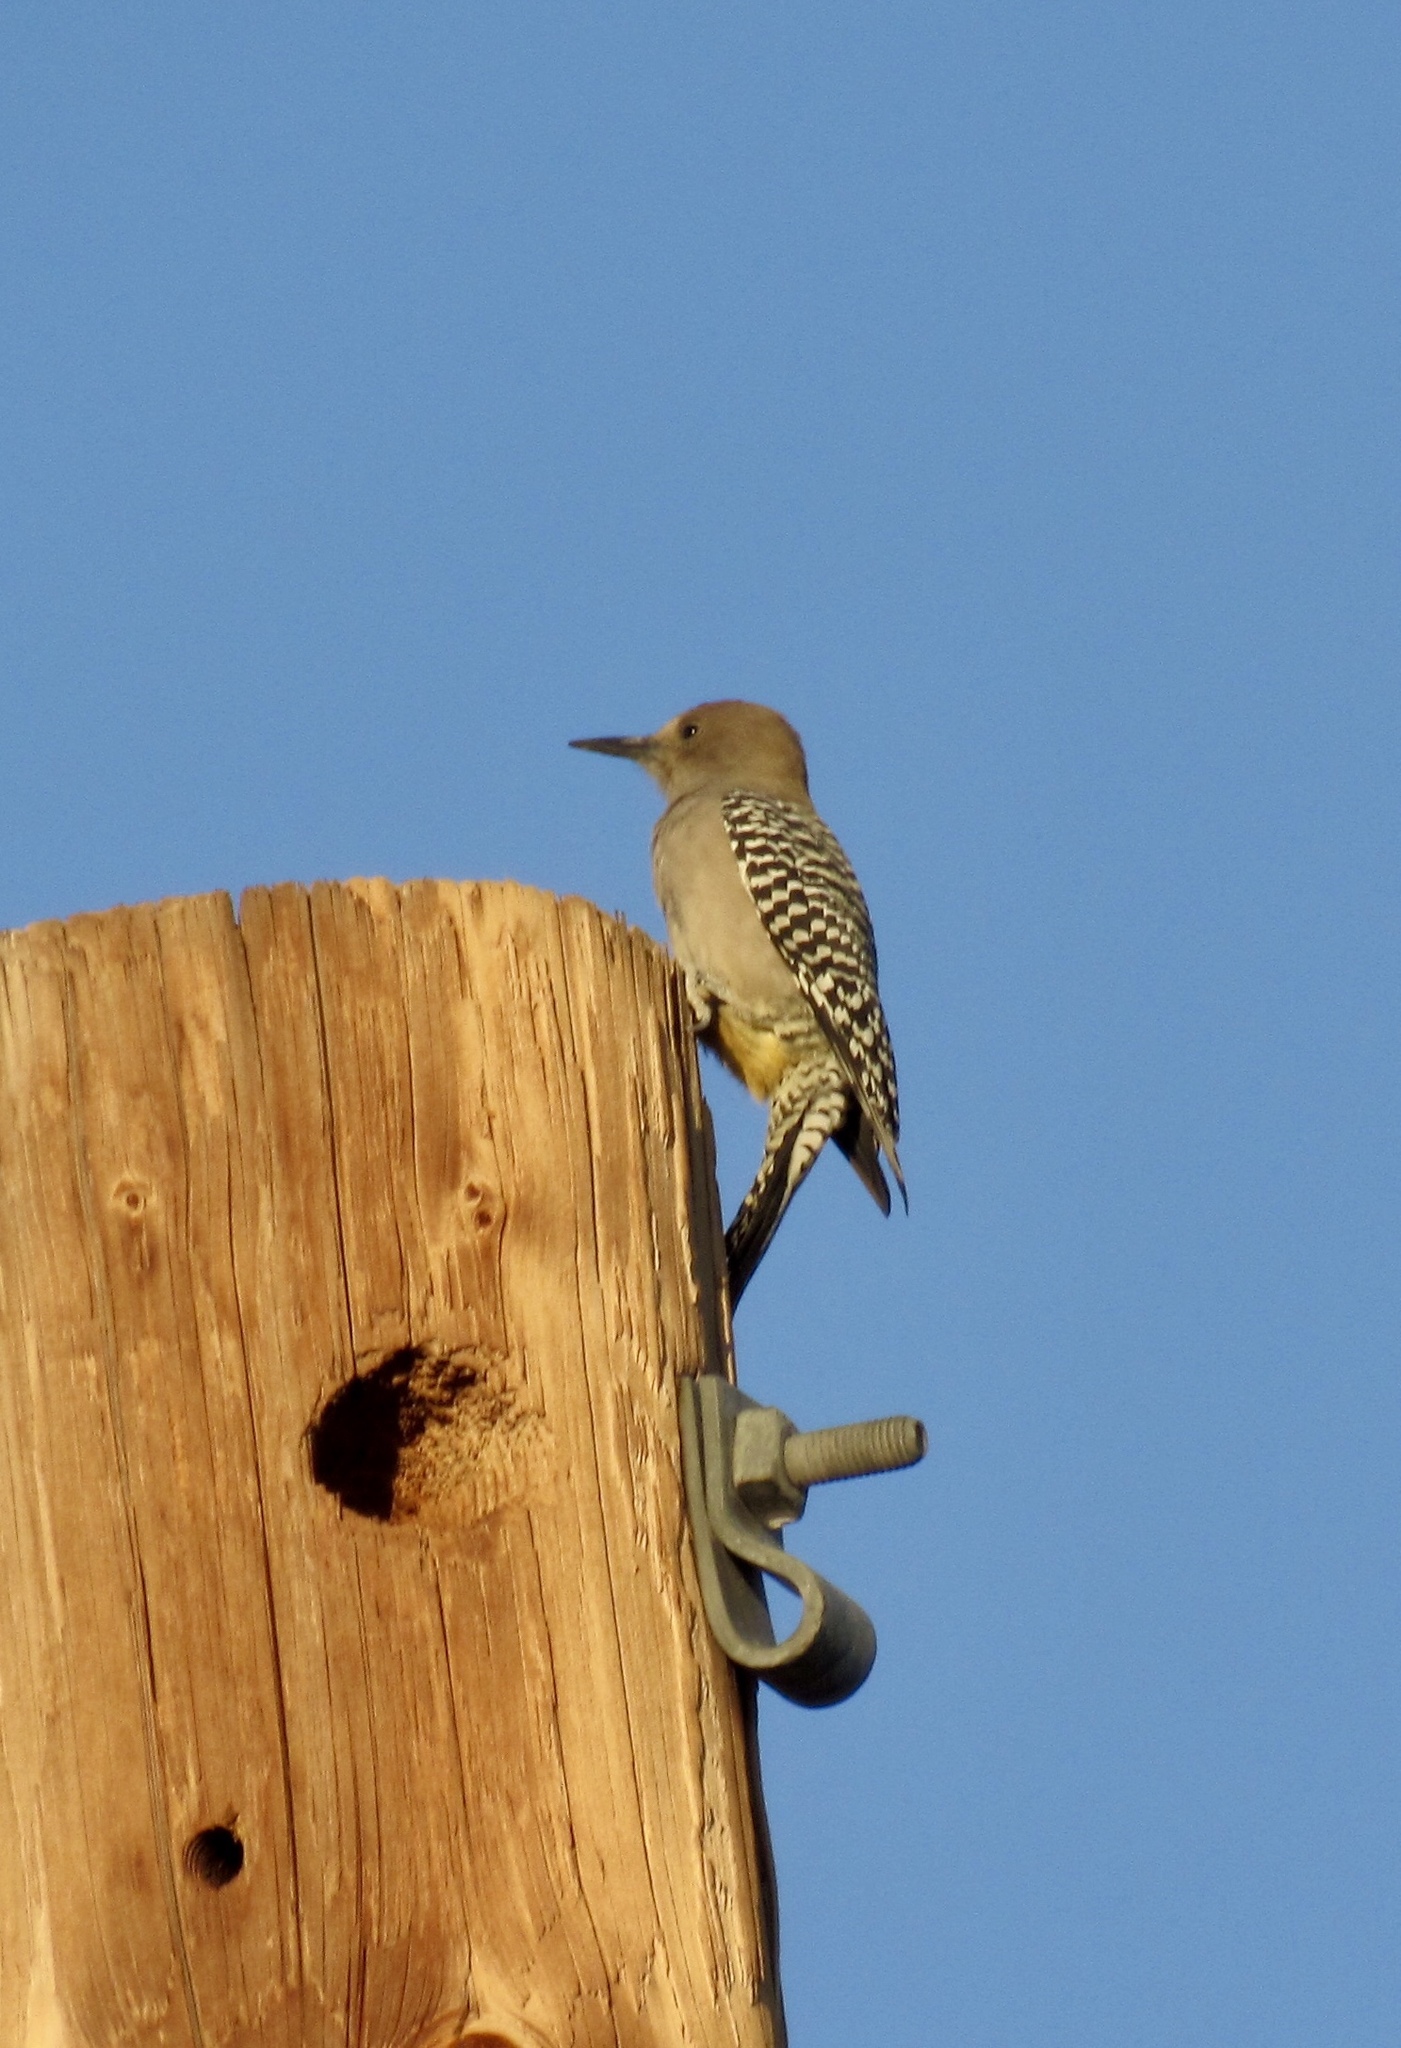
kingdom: Animalia
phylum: Chordata
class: Aves
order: Piciformes
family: Picidae
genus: Melanerpes
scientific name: Melanerpes uropygialis
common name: Gila woodpecker
